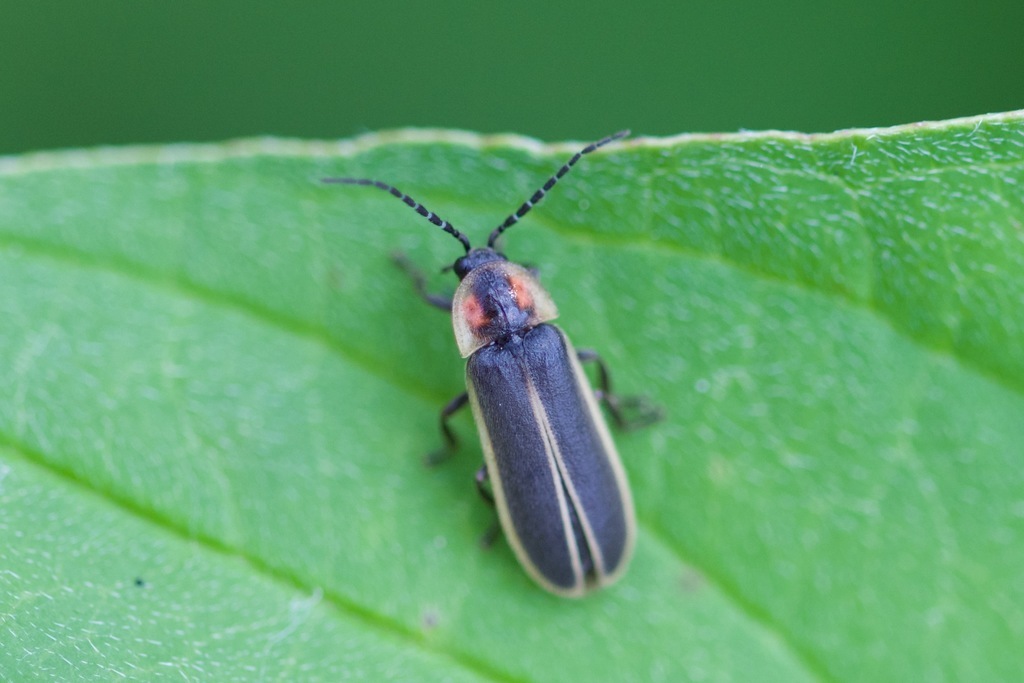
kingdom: Animalia
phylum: Arthropoda
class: Insecta
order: Coleoptera
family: Lampyridae
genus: Photinus
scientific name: Photinus indictus
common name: Silent firefly
